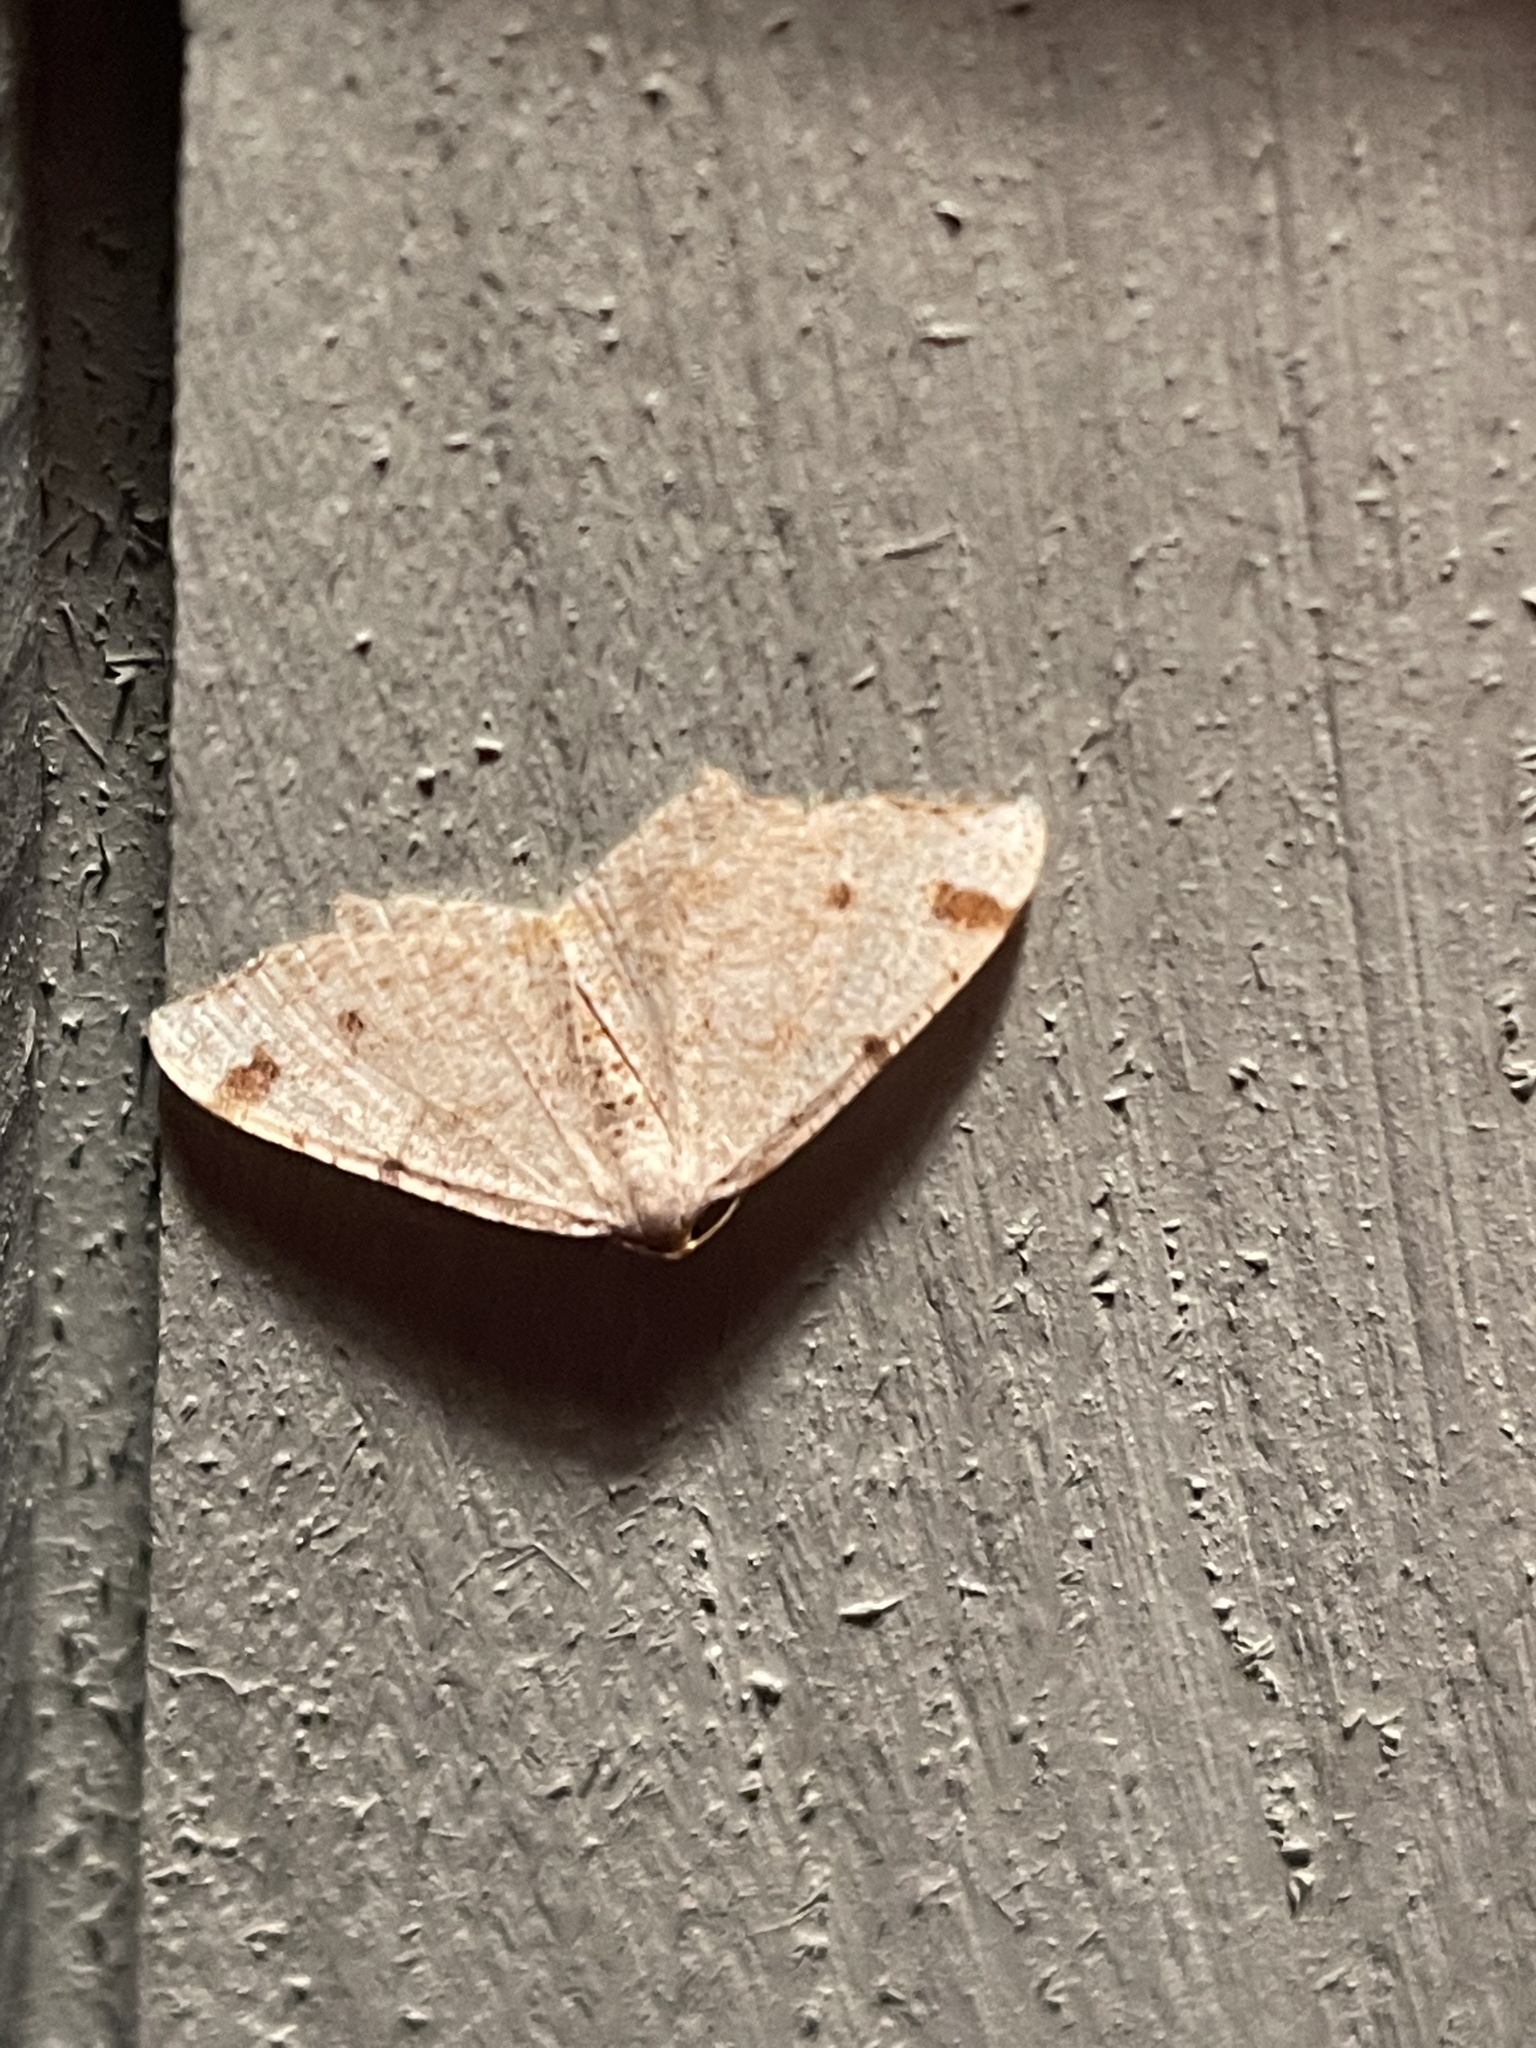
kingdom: Animalia
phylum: Arthropoda
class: Insecta
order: Lepidoptera
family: Geometridae
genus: Macaria
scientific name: Macaria bisignata
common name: Red-headed inchworm
